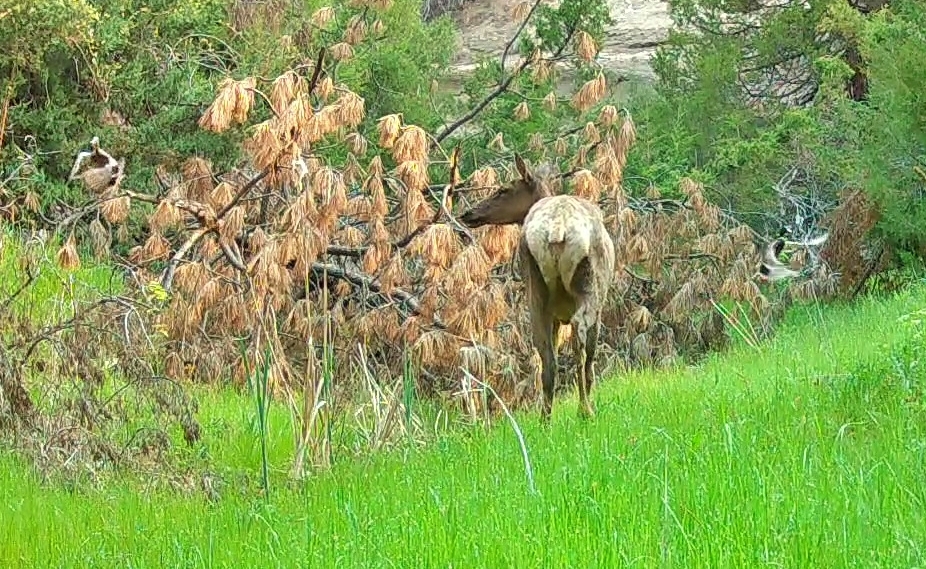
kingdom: Animalia
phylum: Chordata
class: Mammalia
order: Artiodactyla
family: Cervidae
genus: Cervus
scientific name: Cervus elaphus
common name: Red deer
